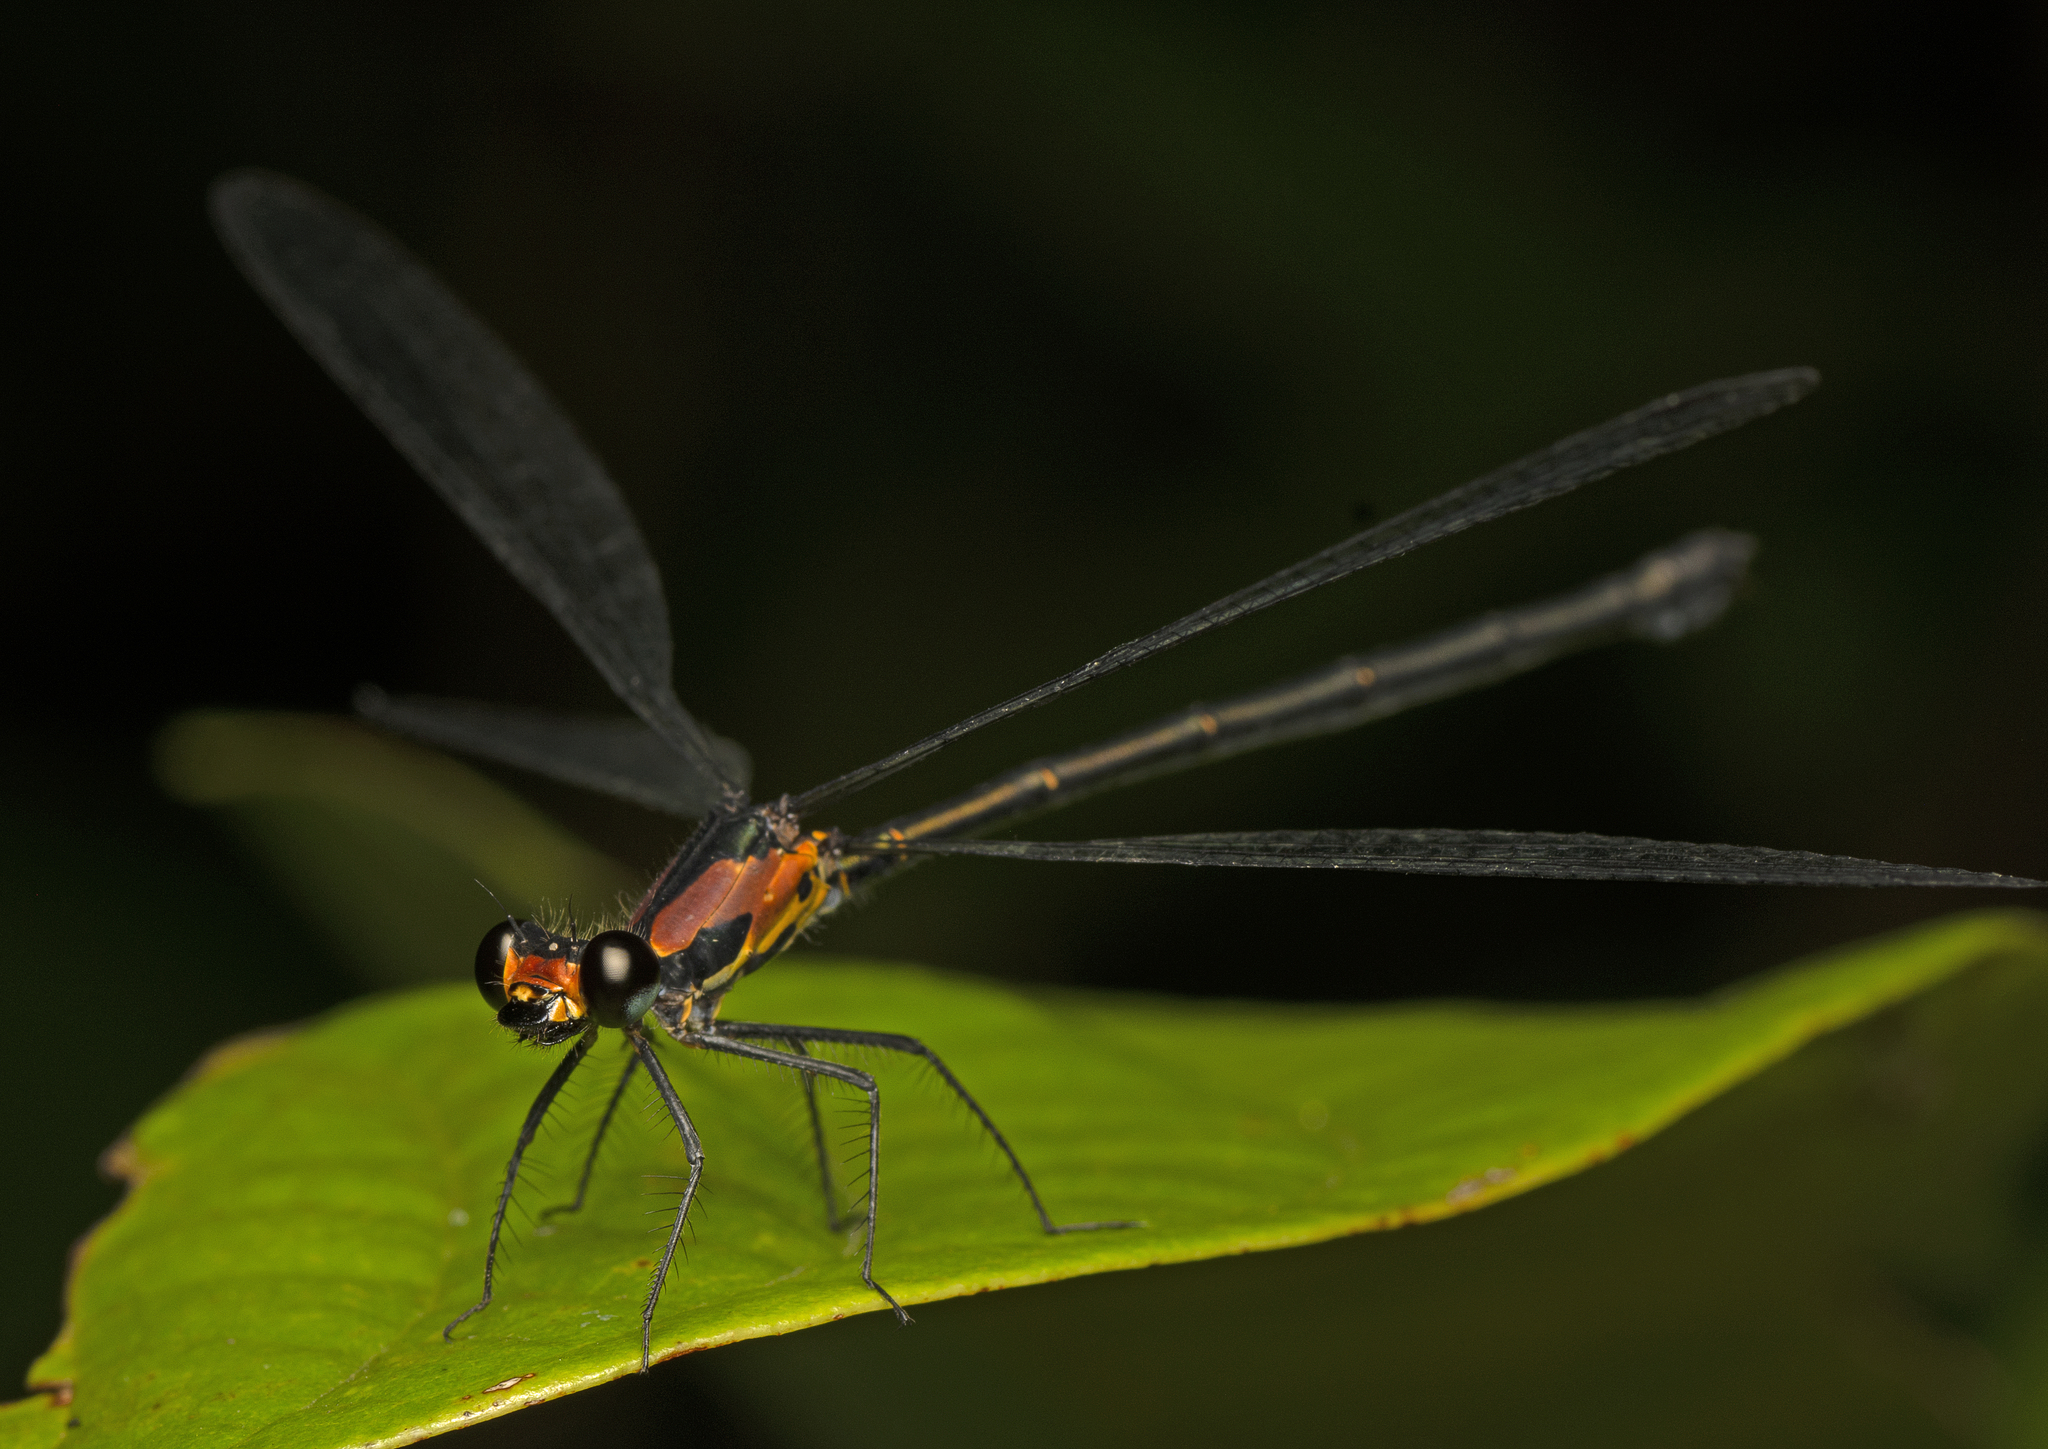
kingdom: Animalia
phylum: Arthropoda
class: Insecta
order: Odonata
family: Argiolestidae
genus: Austroargiolestes
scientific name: Austroargiolestes aureus
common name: Tropical flatwing
